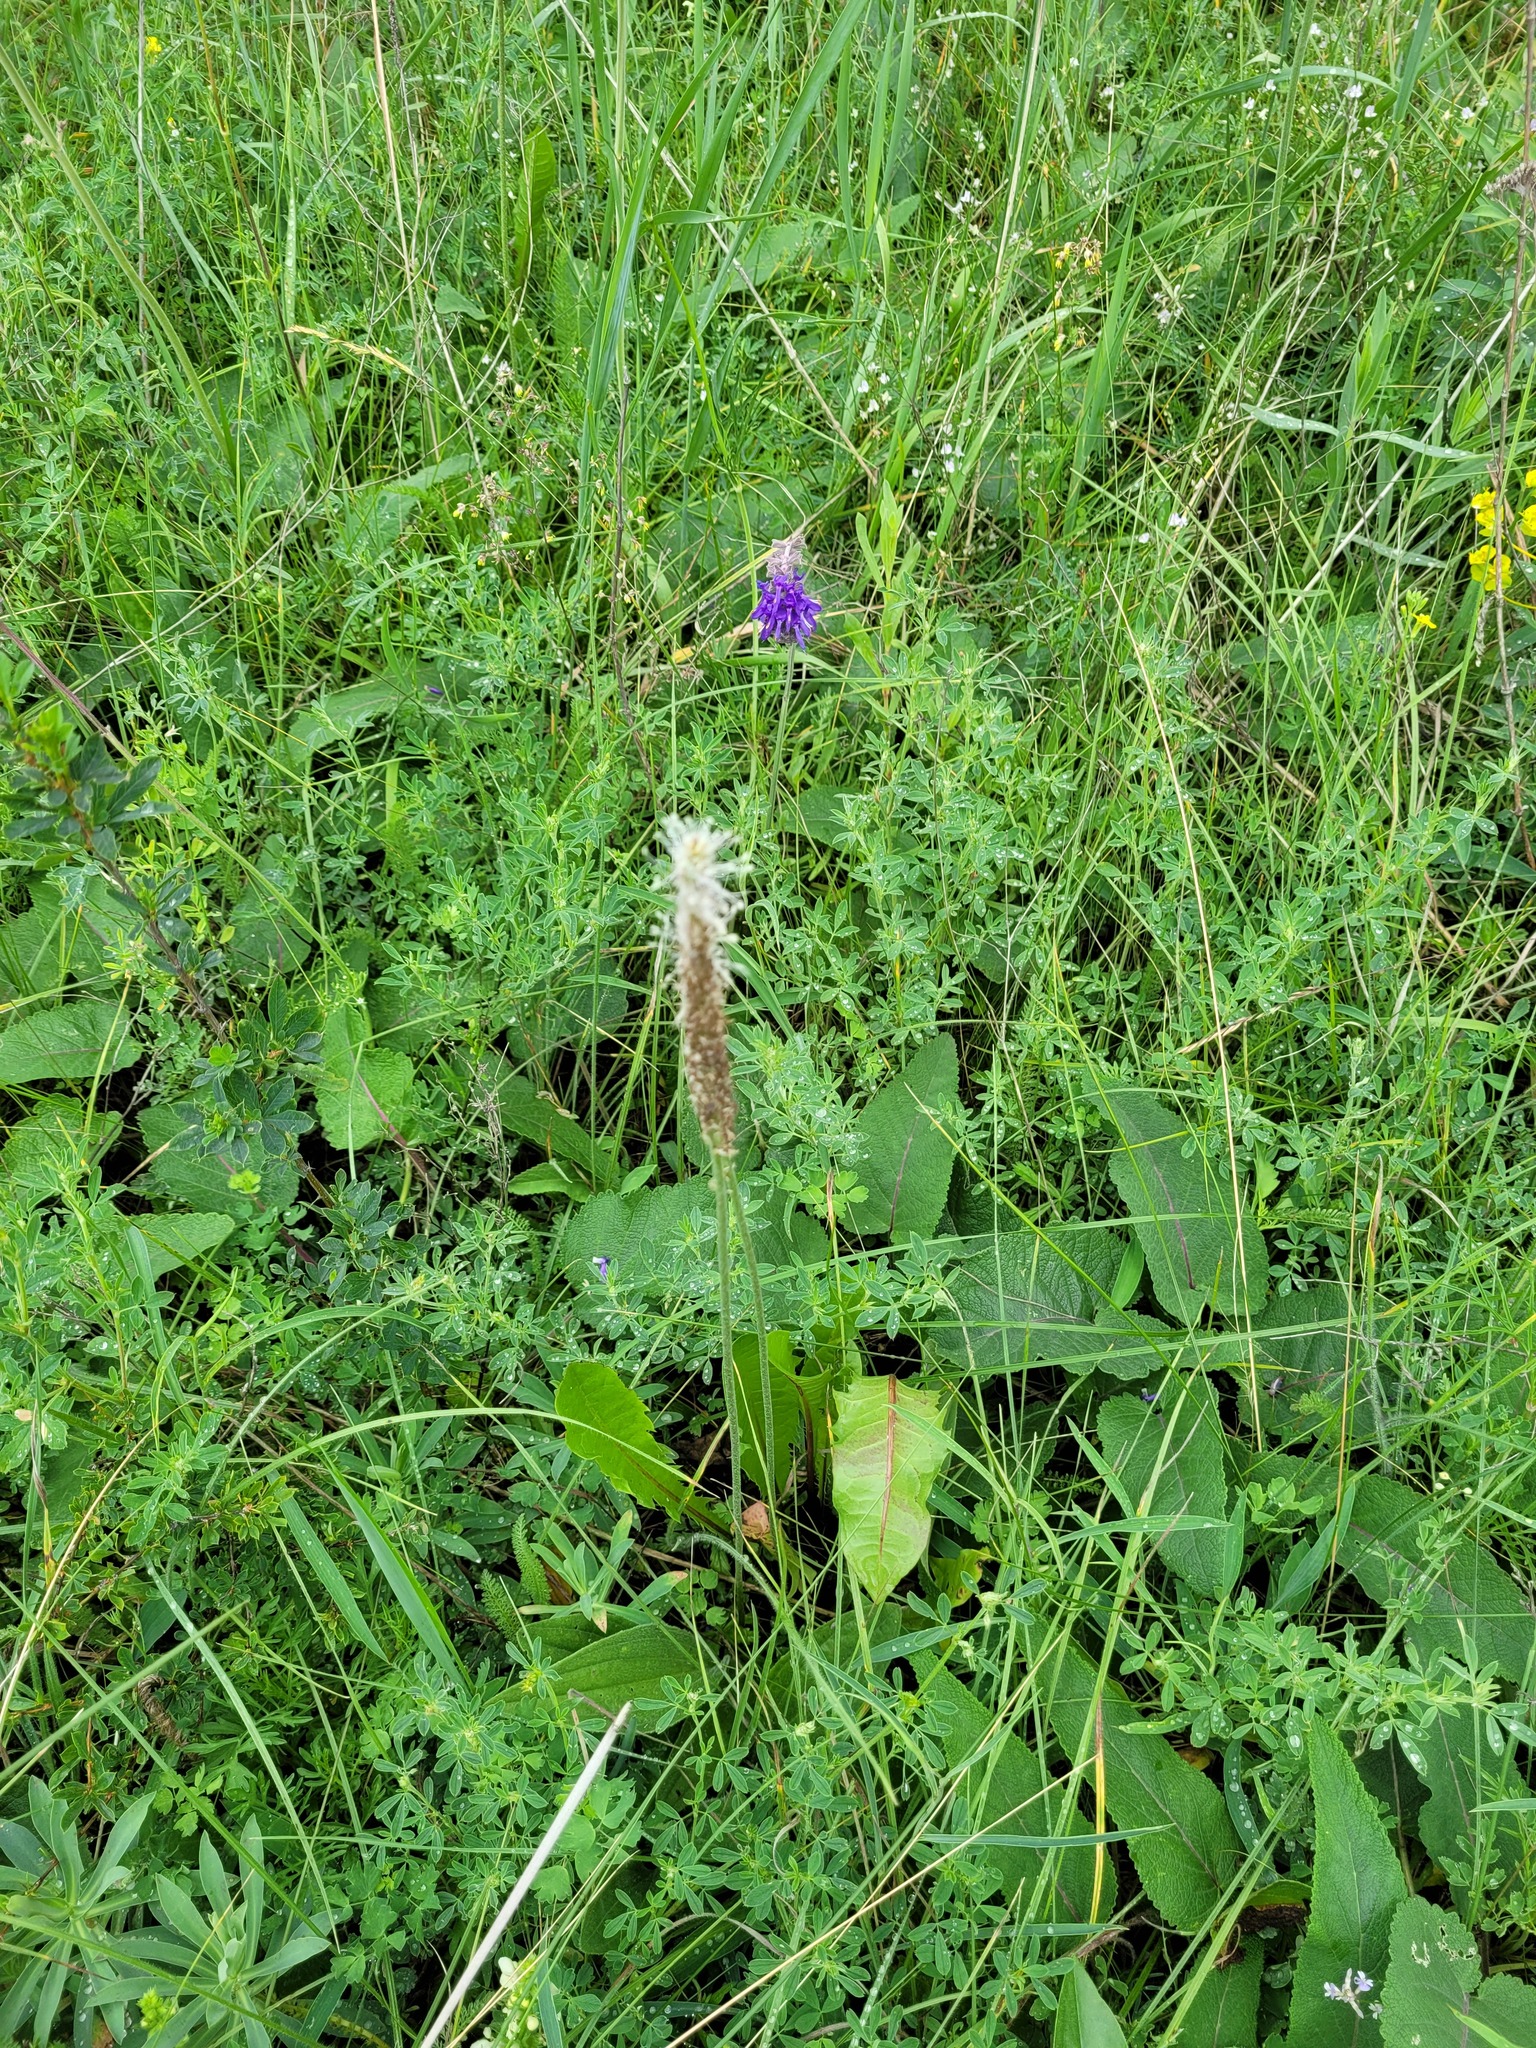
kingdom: Plantae
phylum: Tracheophyta
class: Magnoliopsida
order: Lamiales
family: Plantaginaceae
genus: Plantago
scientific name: Plantago urvillei
